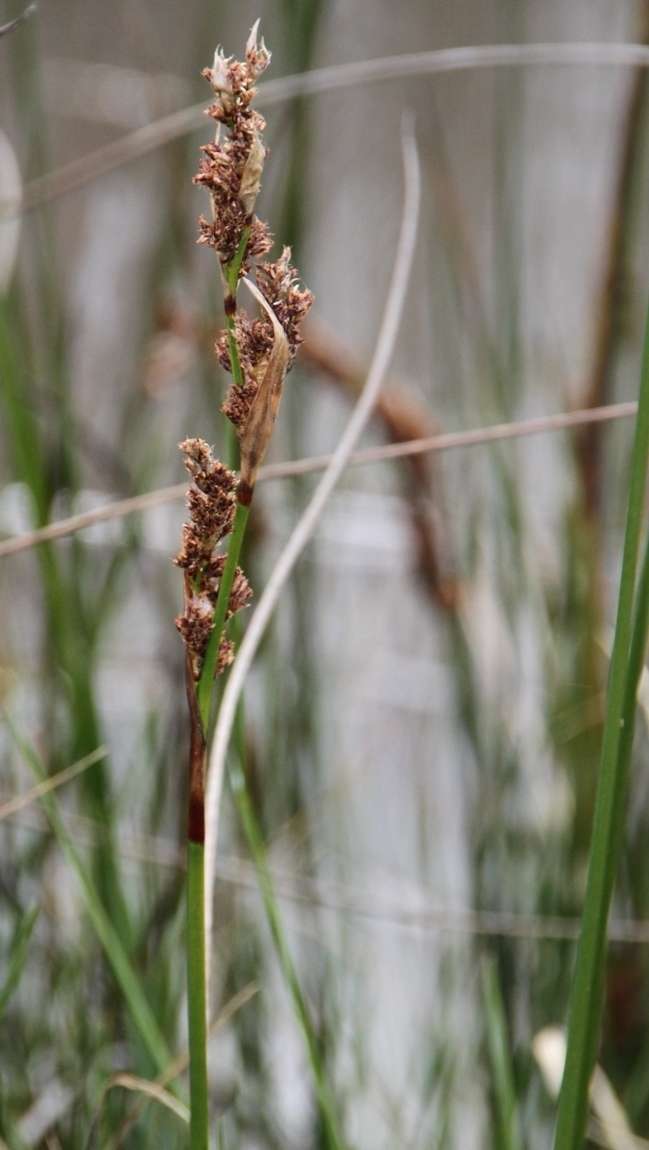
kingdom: Plantae
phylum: Tracheophyta
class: Liliopsida
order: Poales
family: Cyperaceae
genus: Carex
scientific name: Carex appressa
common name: Tussock sedge
